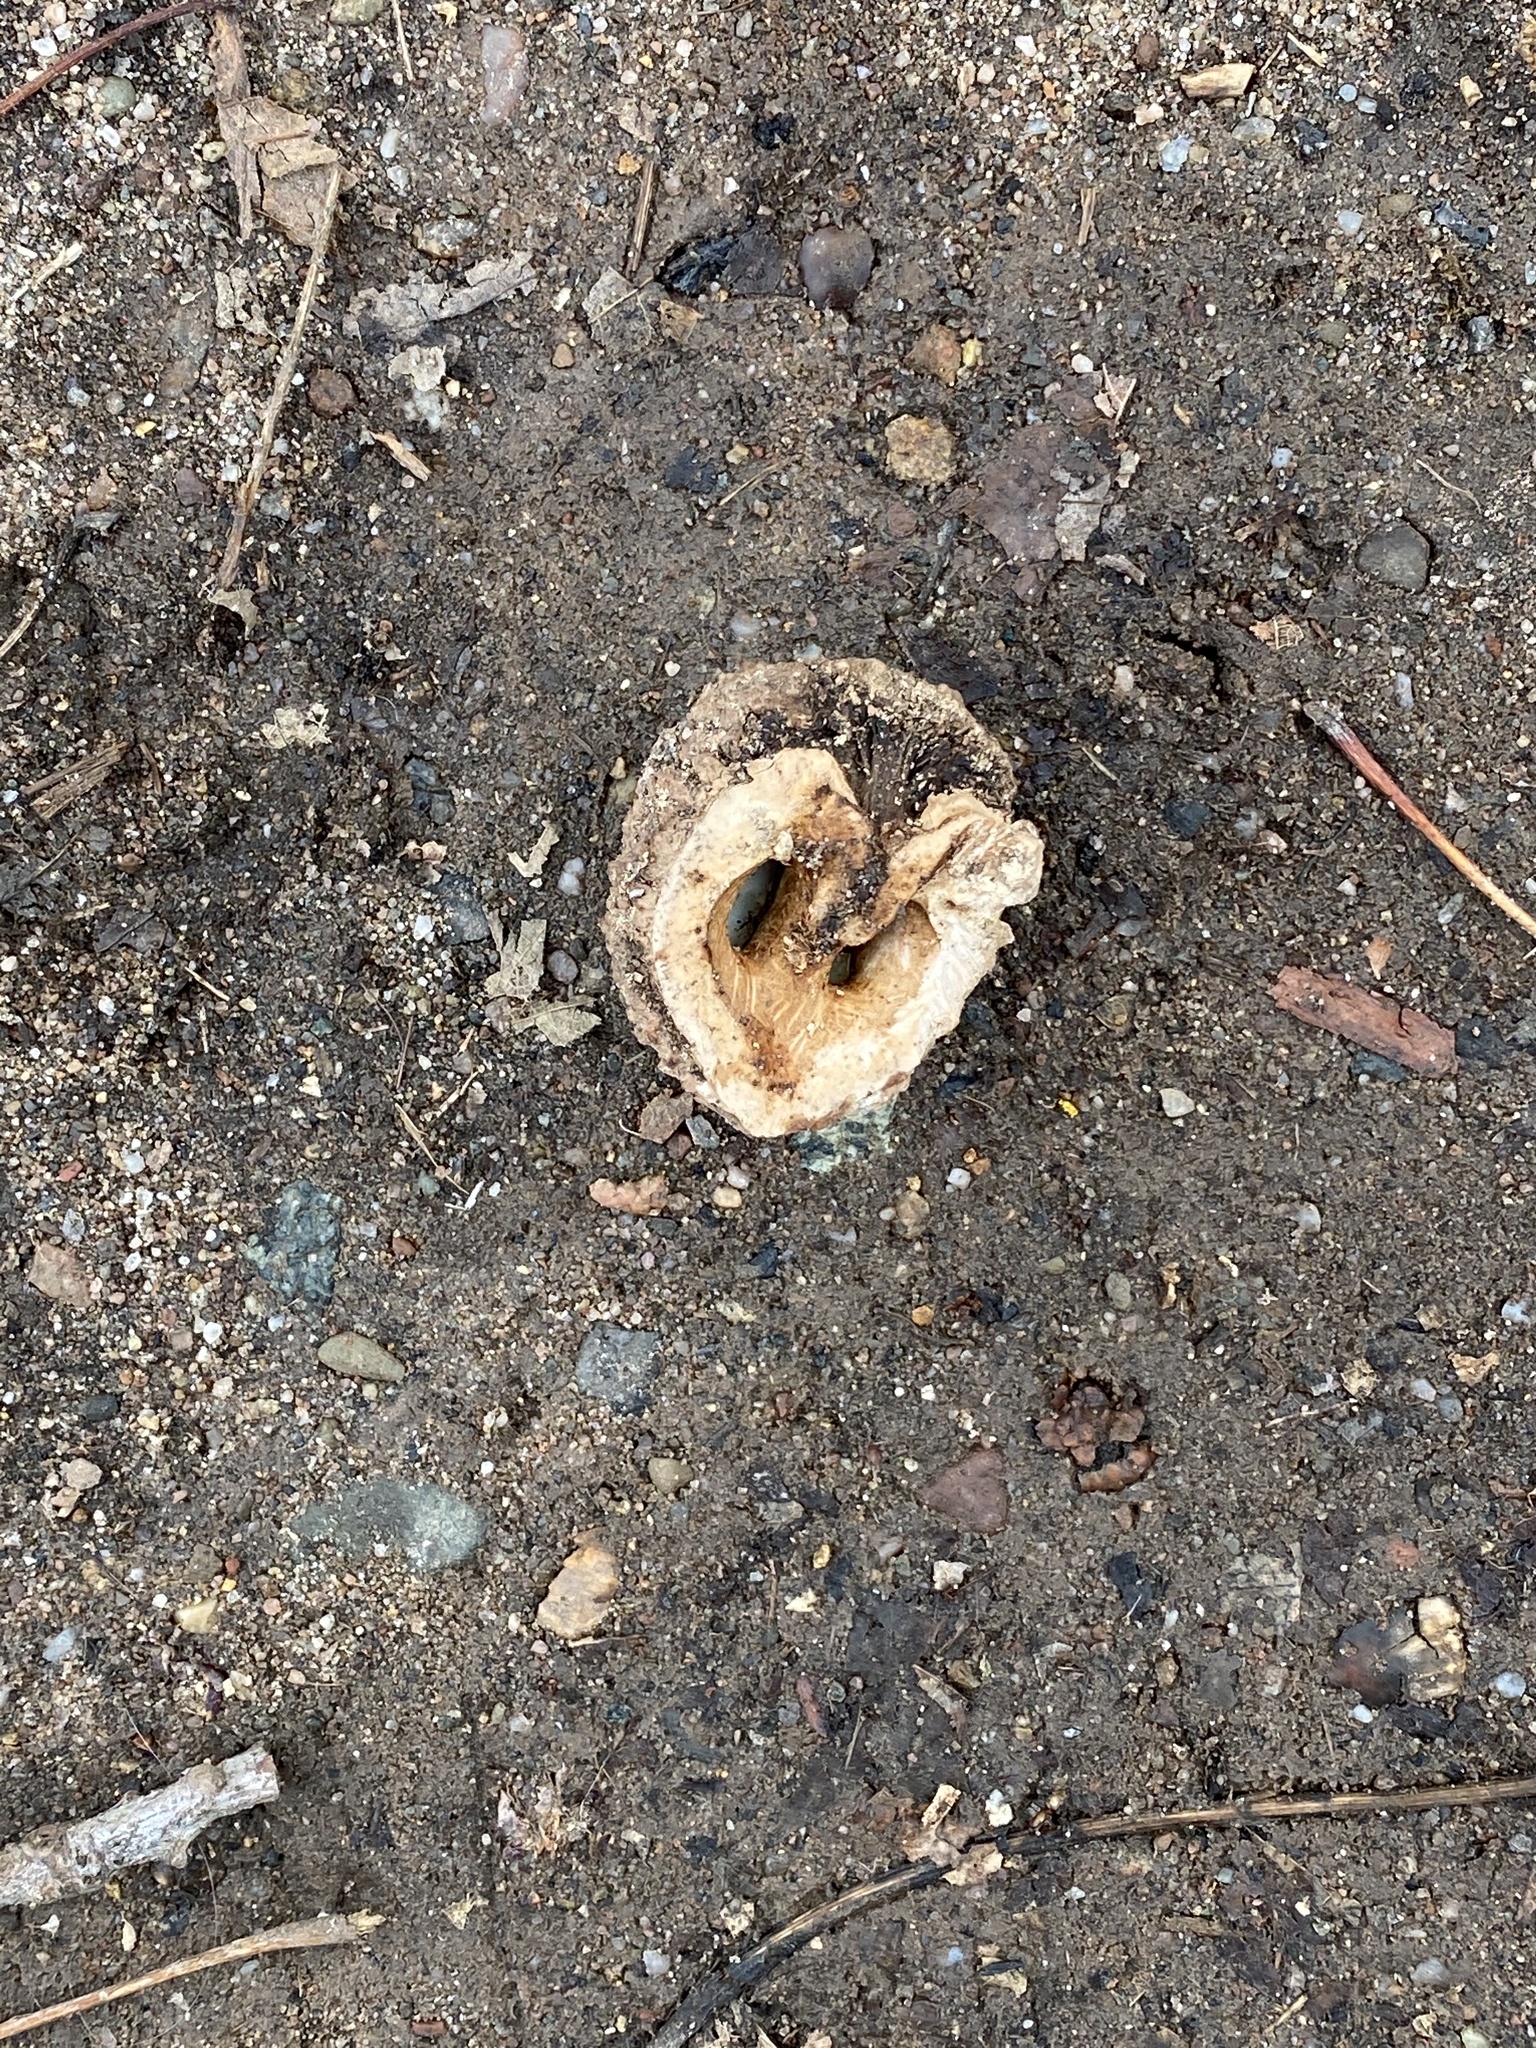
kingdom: Plantae
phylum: Tracheophyta
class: Magnoliopsida
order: Fagales
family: Juglandaceae
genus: Juglans
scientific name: Juglans nigra
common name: Black walnut
